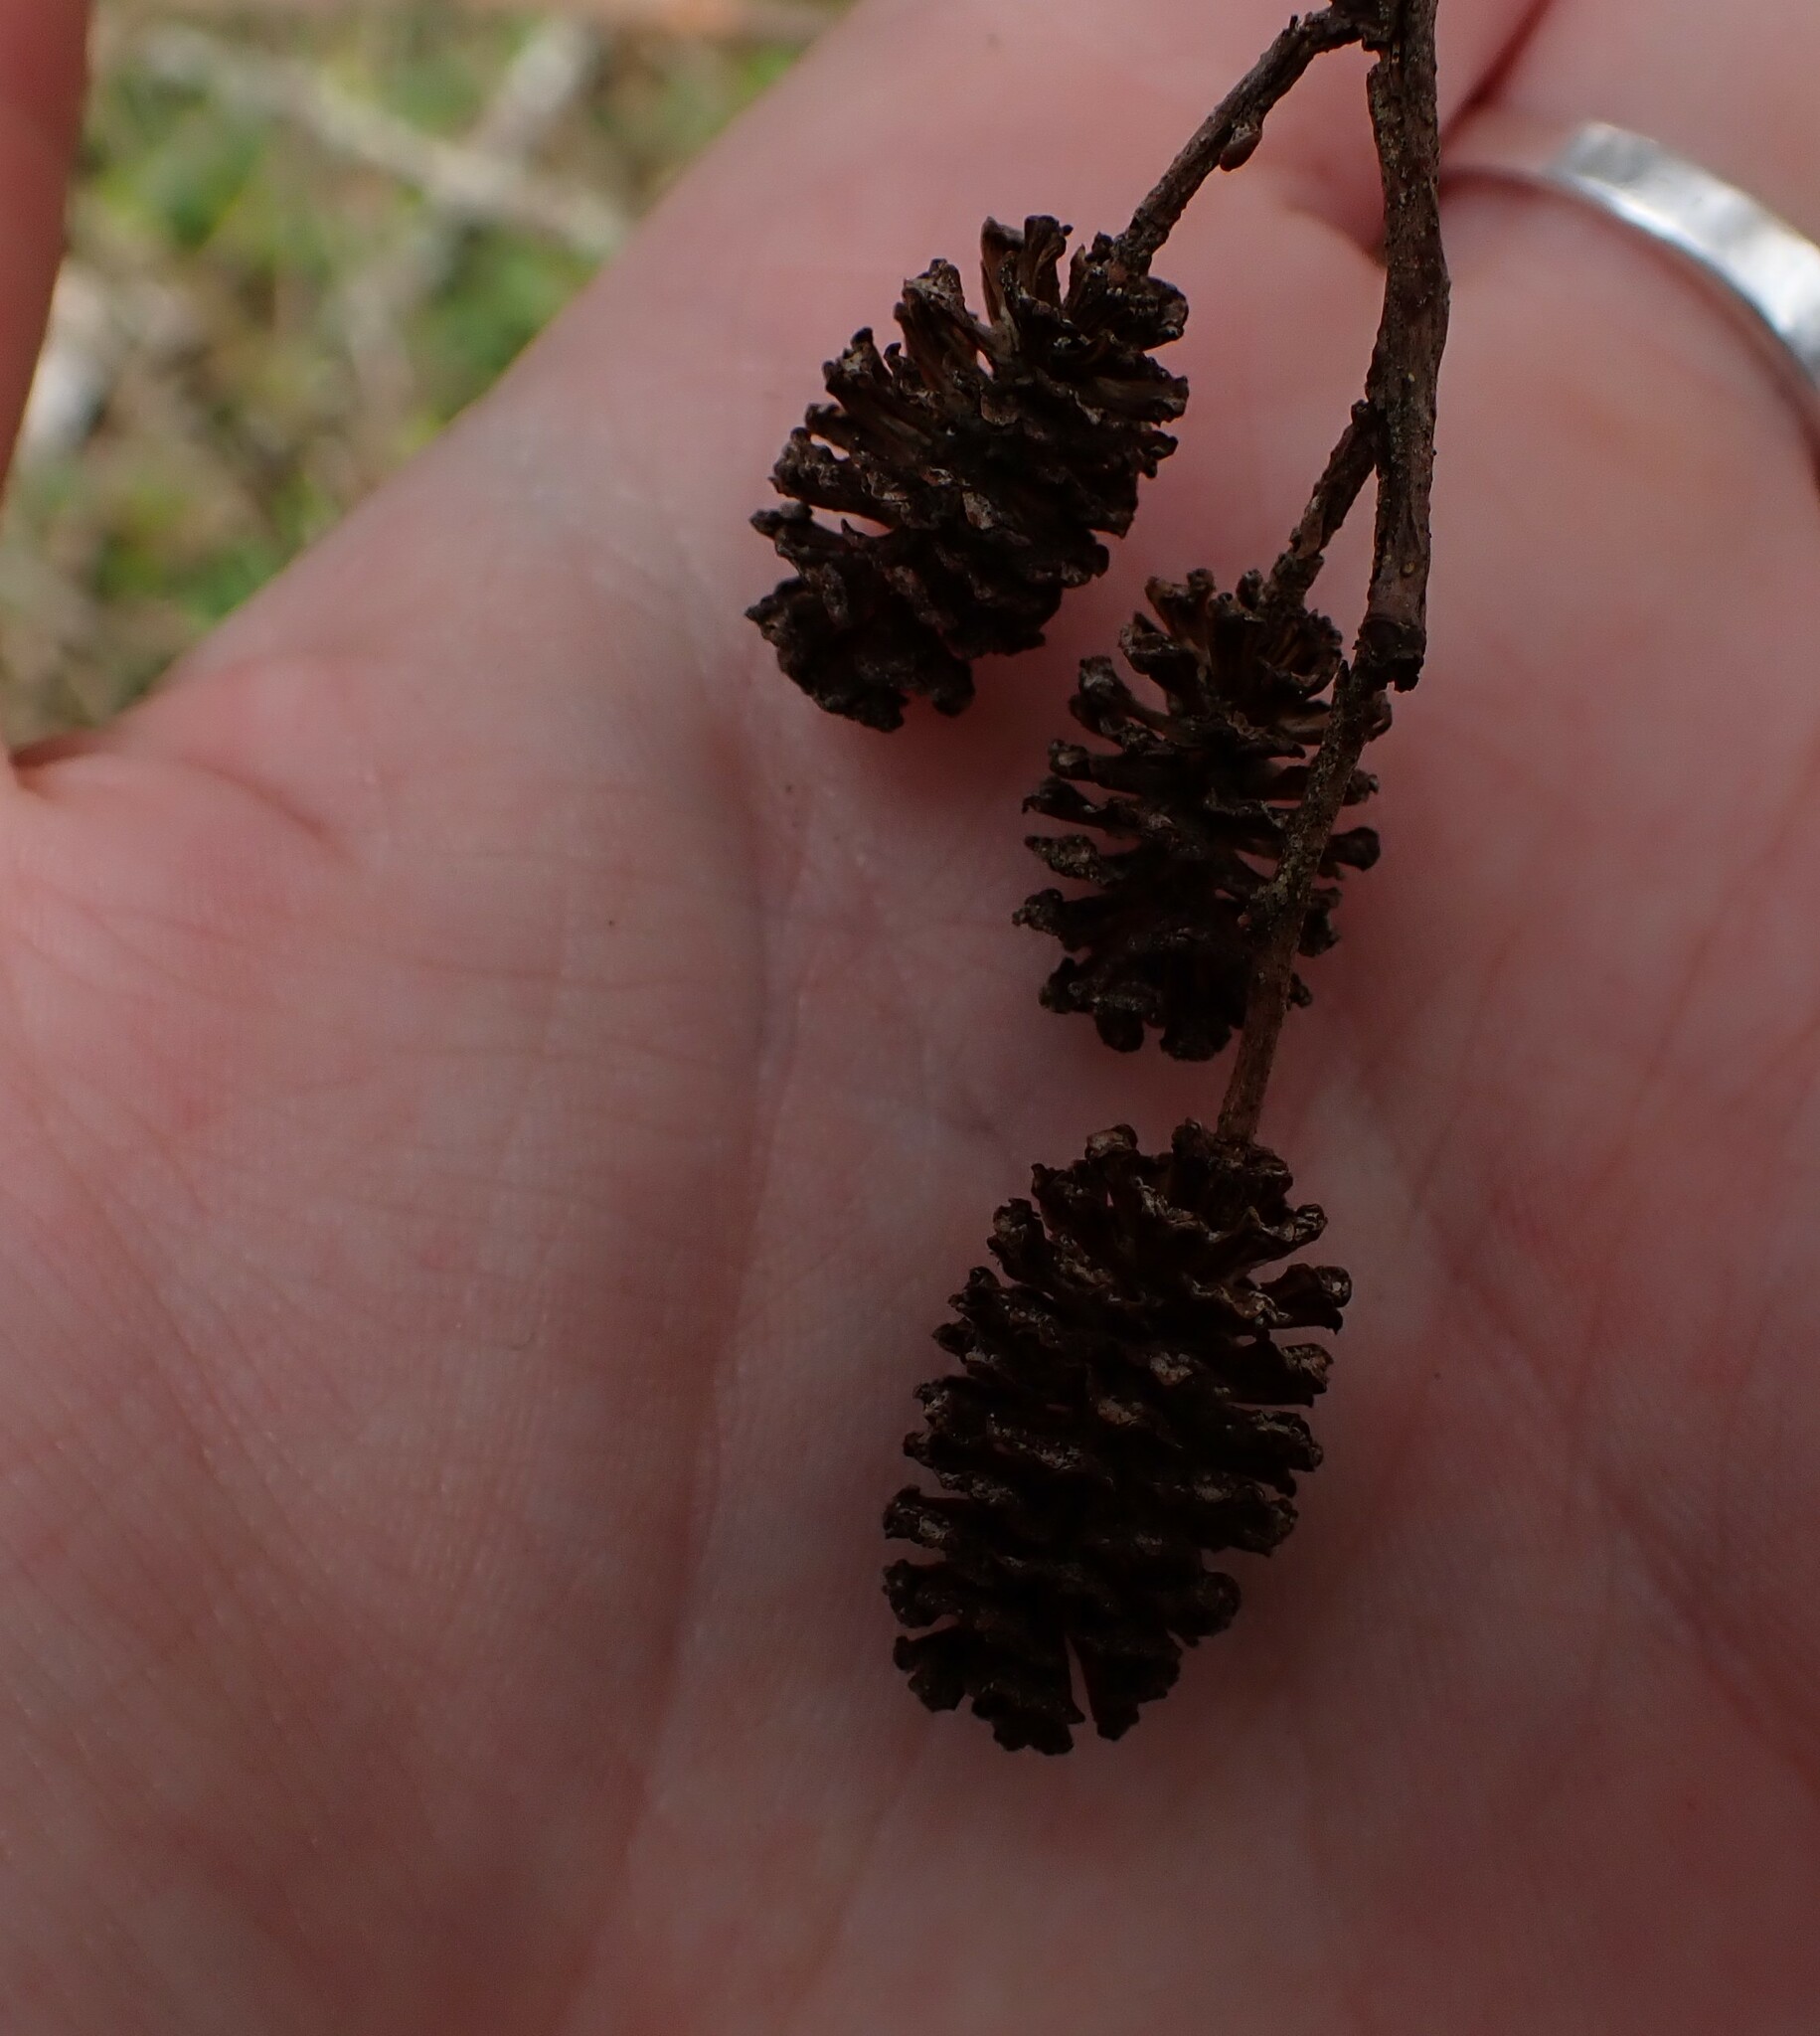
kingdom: Plantae
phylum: Tracheophyta
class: Magnoliopsida
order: Fagales
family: Betulaceae
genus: Alnus
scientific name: Alnus rubra
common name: Red alder
